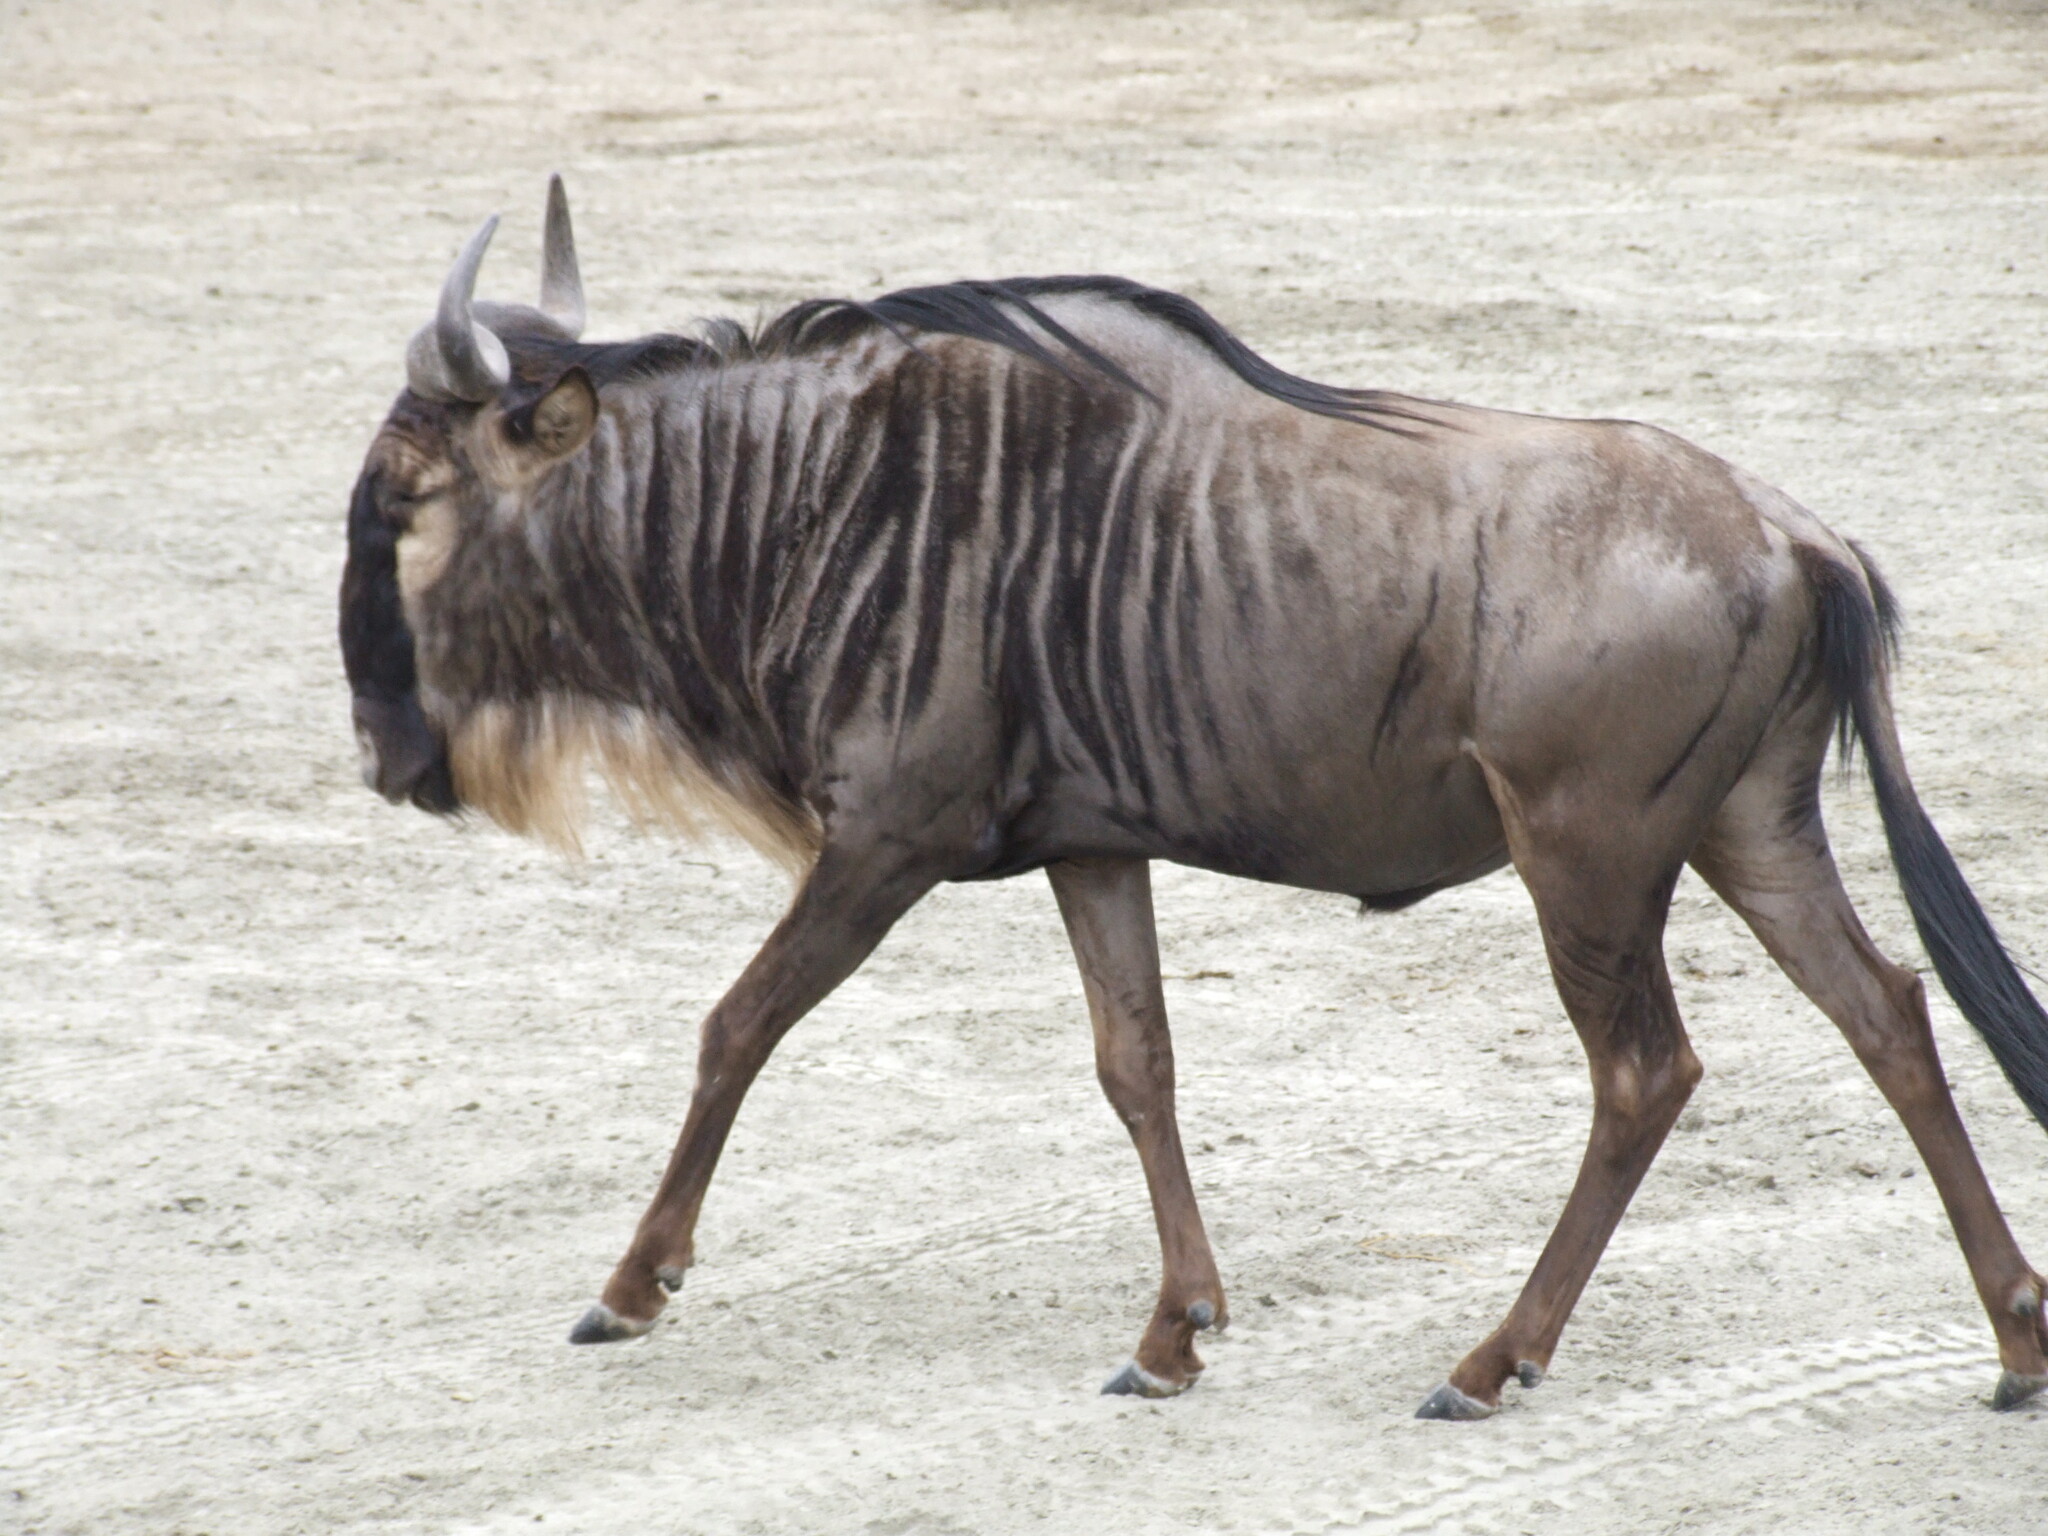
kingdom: Animalia
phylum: Chordata
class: Mammalia
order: Artiodactyla
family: Bovidae
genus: Connochaetes
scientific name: Connochaetes taurinus
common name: Blue wildebeest
